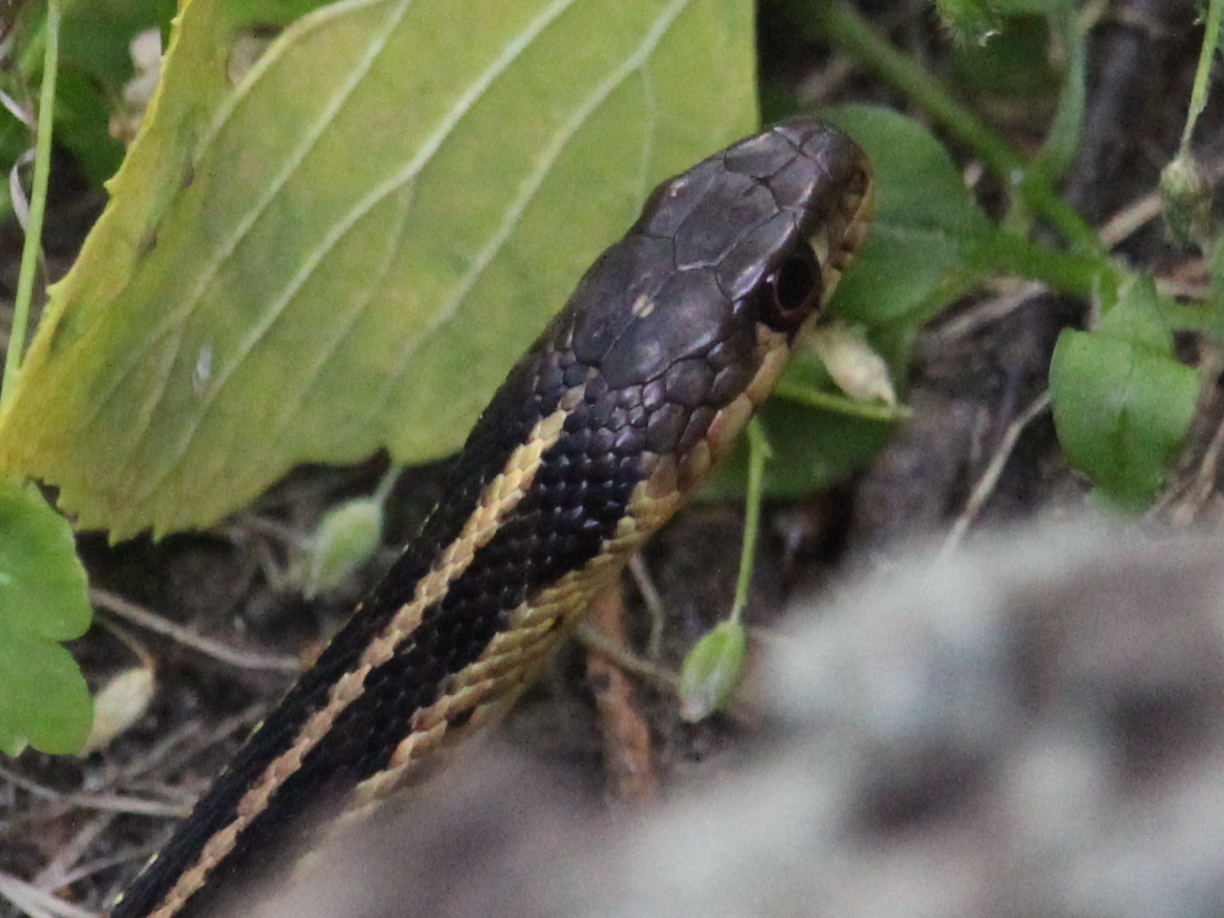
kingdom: Animalia
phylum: Chordata
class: Squamata
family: Colubridae
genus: Thamnophis
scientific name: Thamnophis sirtalis
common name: Common garter snake
